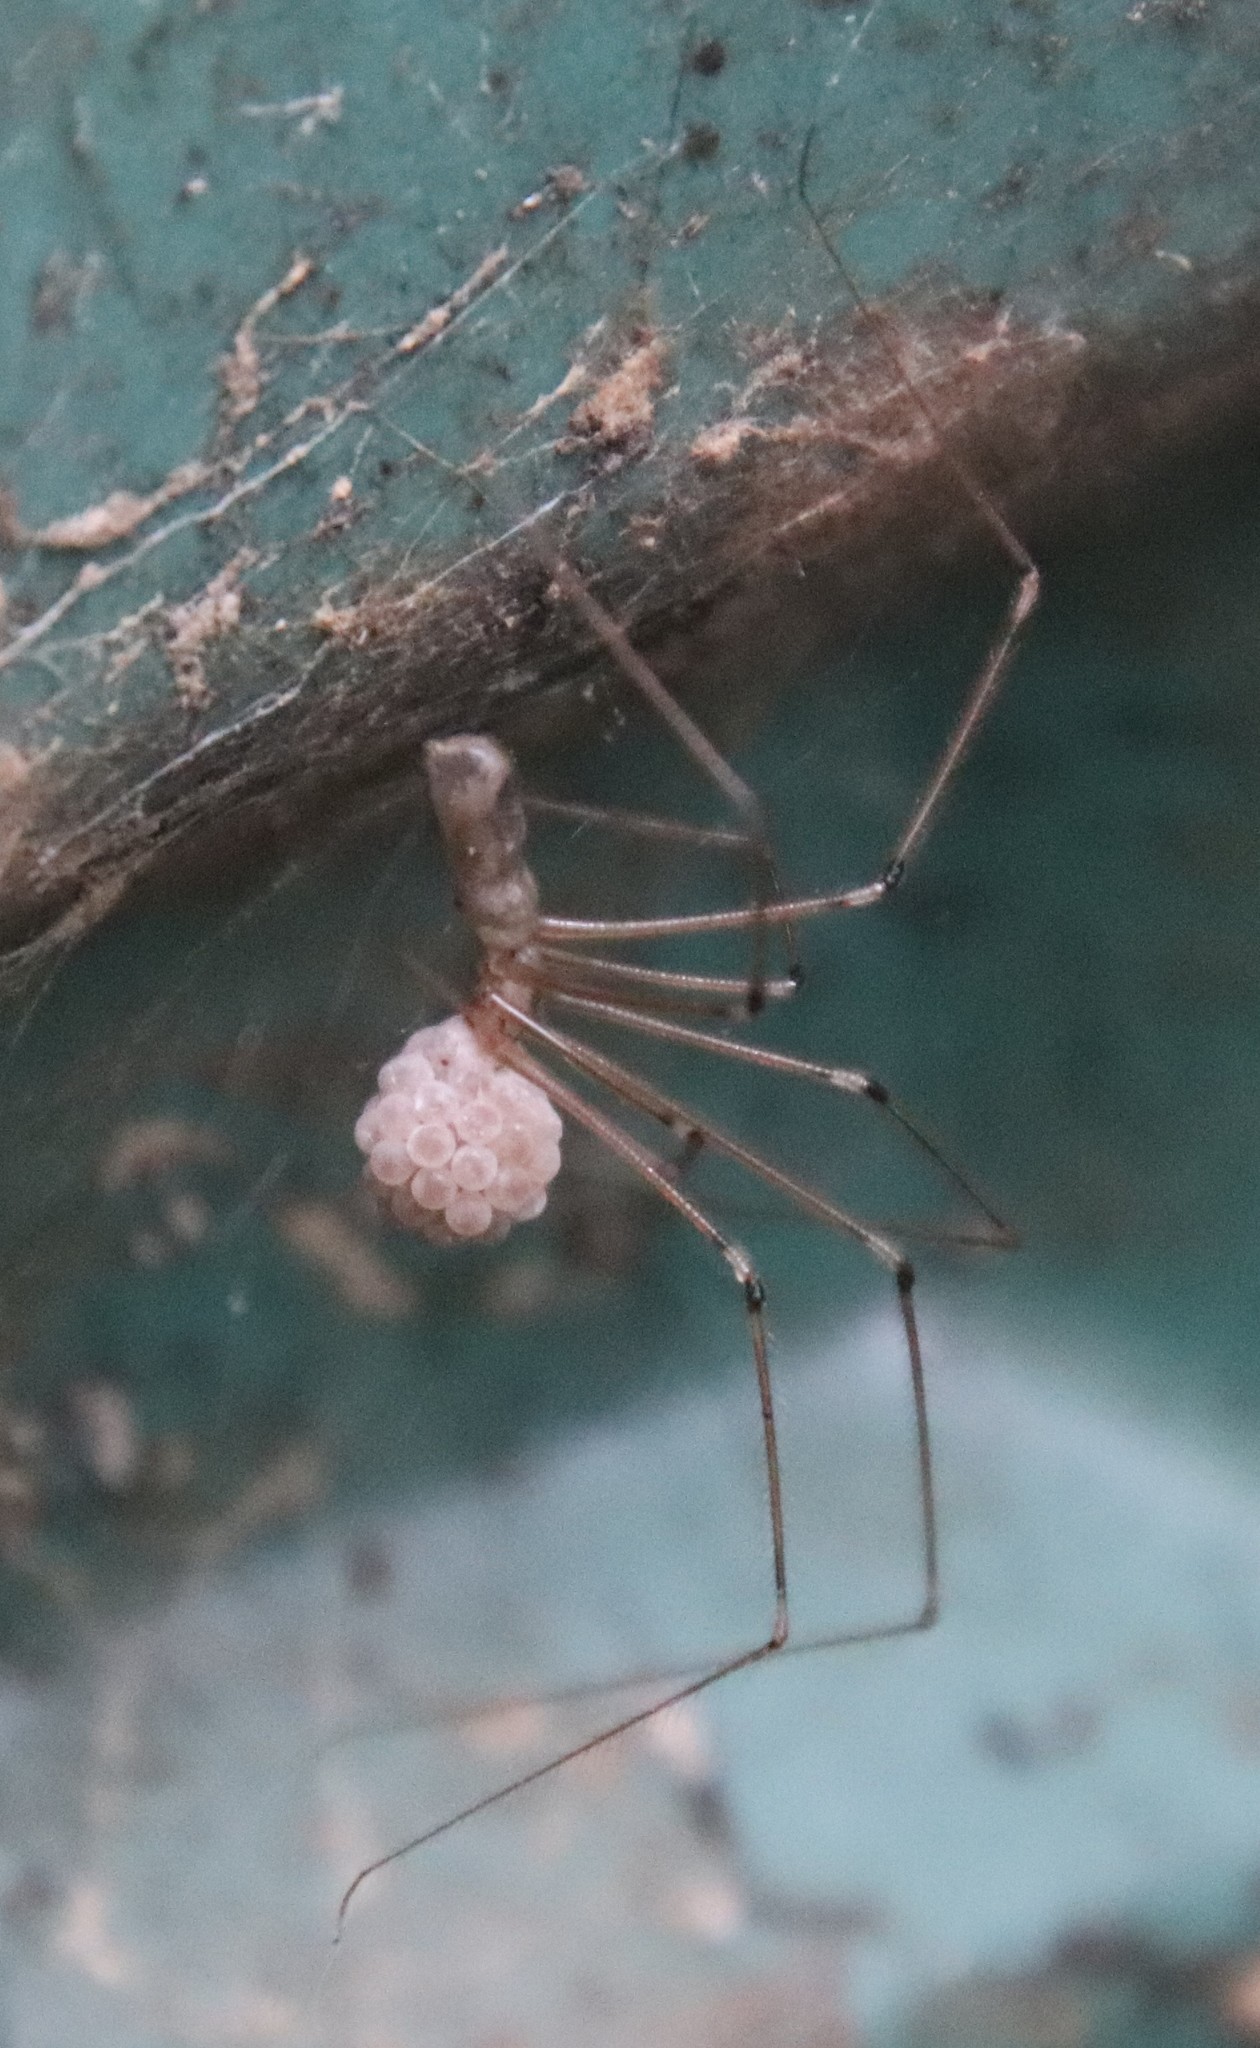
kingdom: Animalia
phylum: Arthropoda
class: Arachnida
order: Araneae
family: Pholcidae
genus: Pholcus
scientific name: Pholcus phalangioides
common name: Longbodied cellar spider
